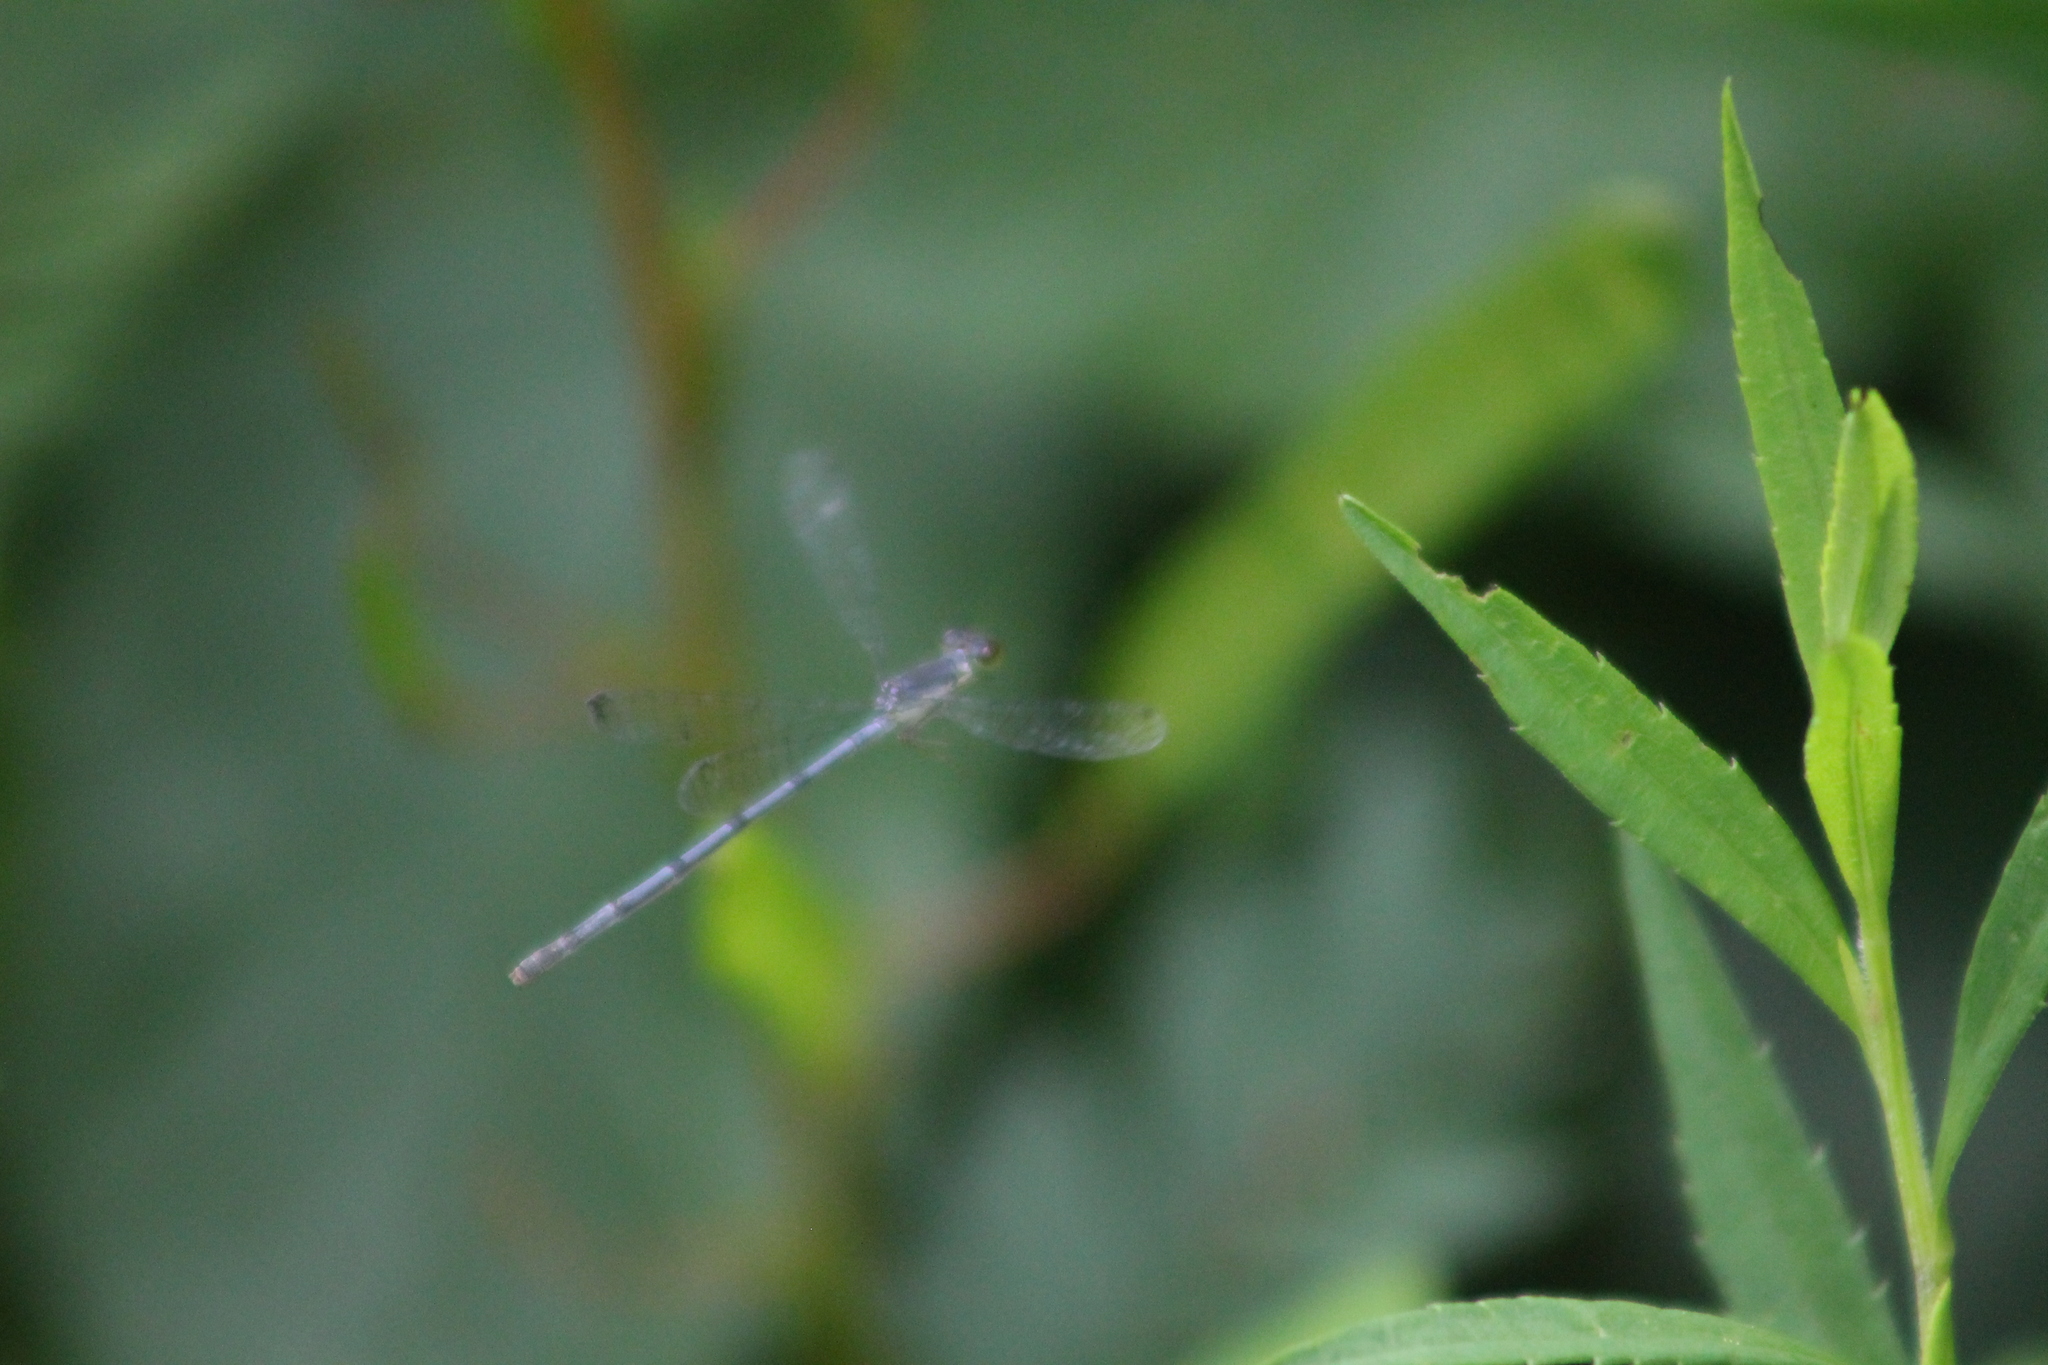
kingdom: Animalia
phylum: Arthropoda
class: Insecta
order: Odonata
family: Coenagrionidae
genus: Ischnura
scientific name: Ischnura posita
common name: Fragile forktail
